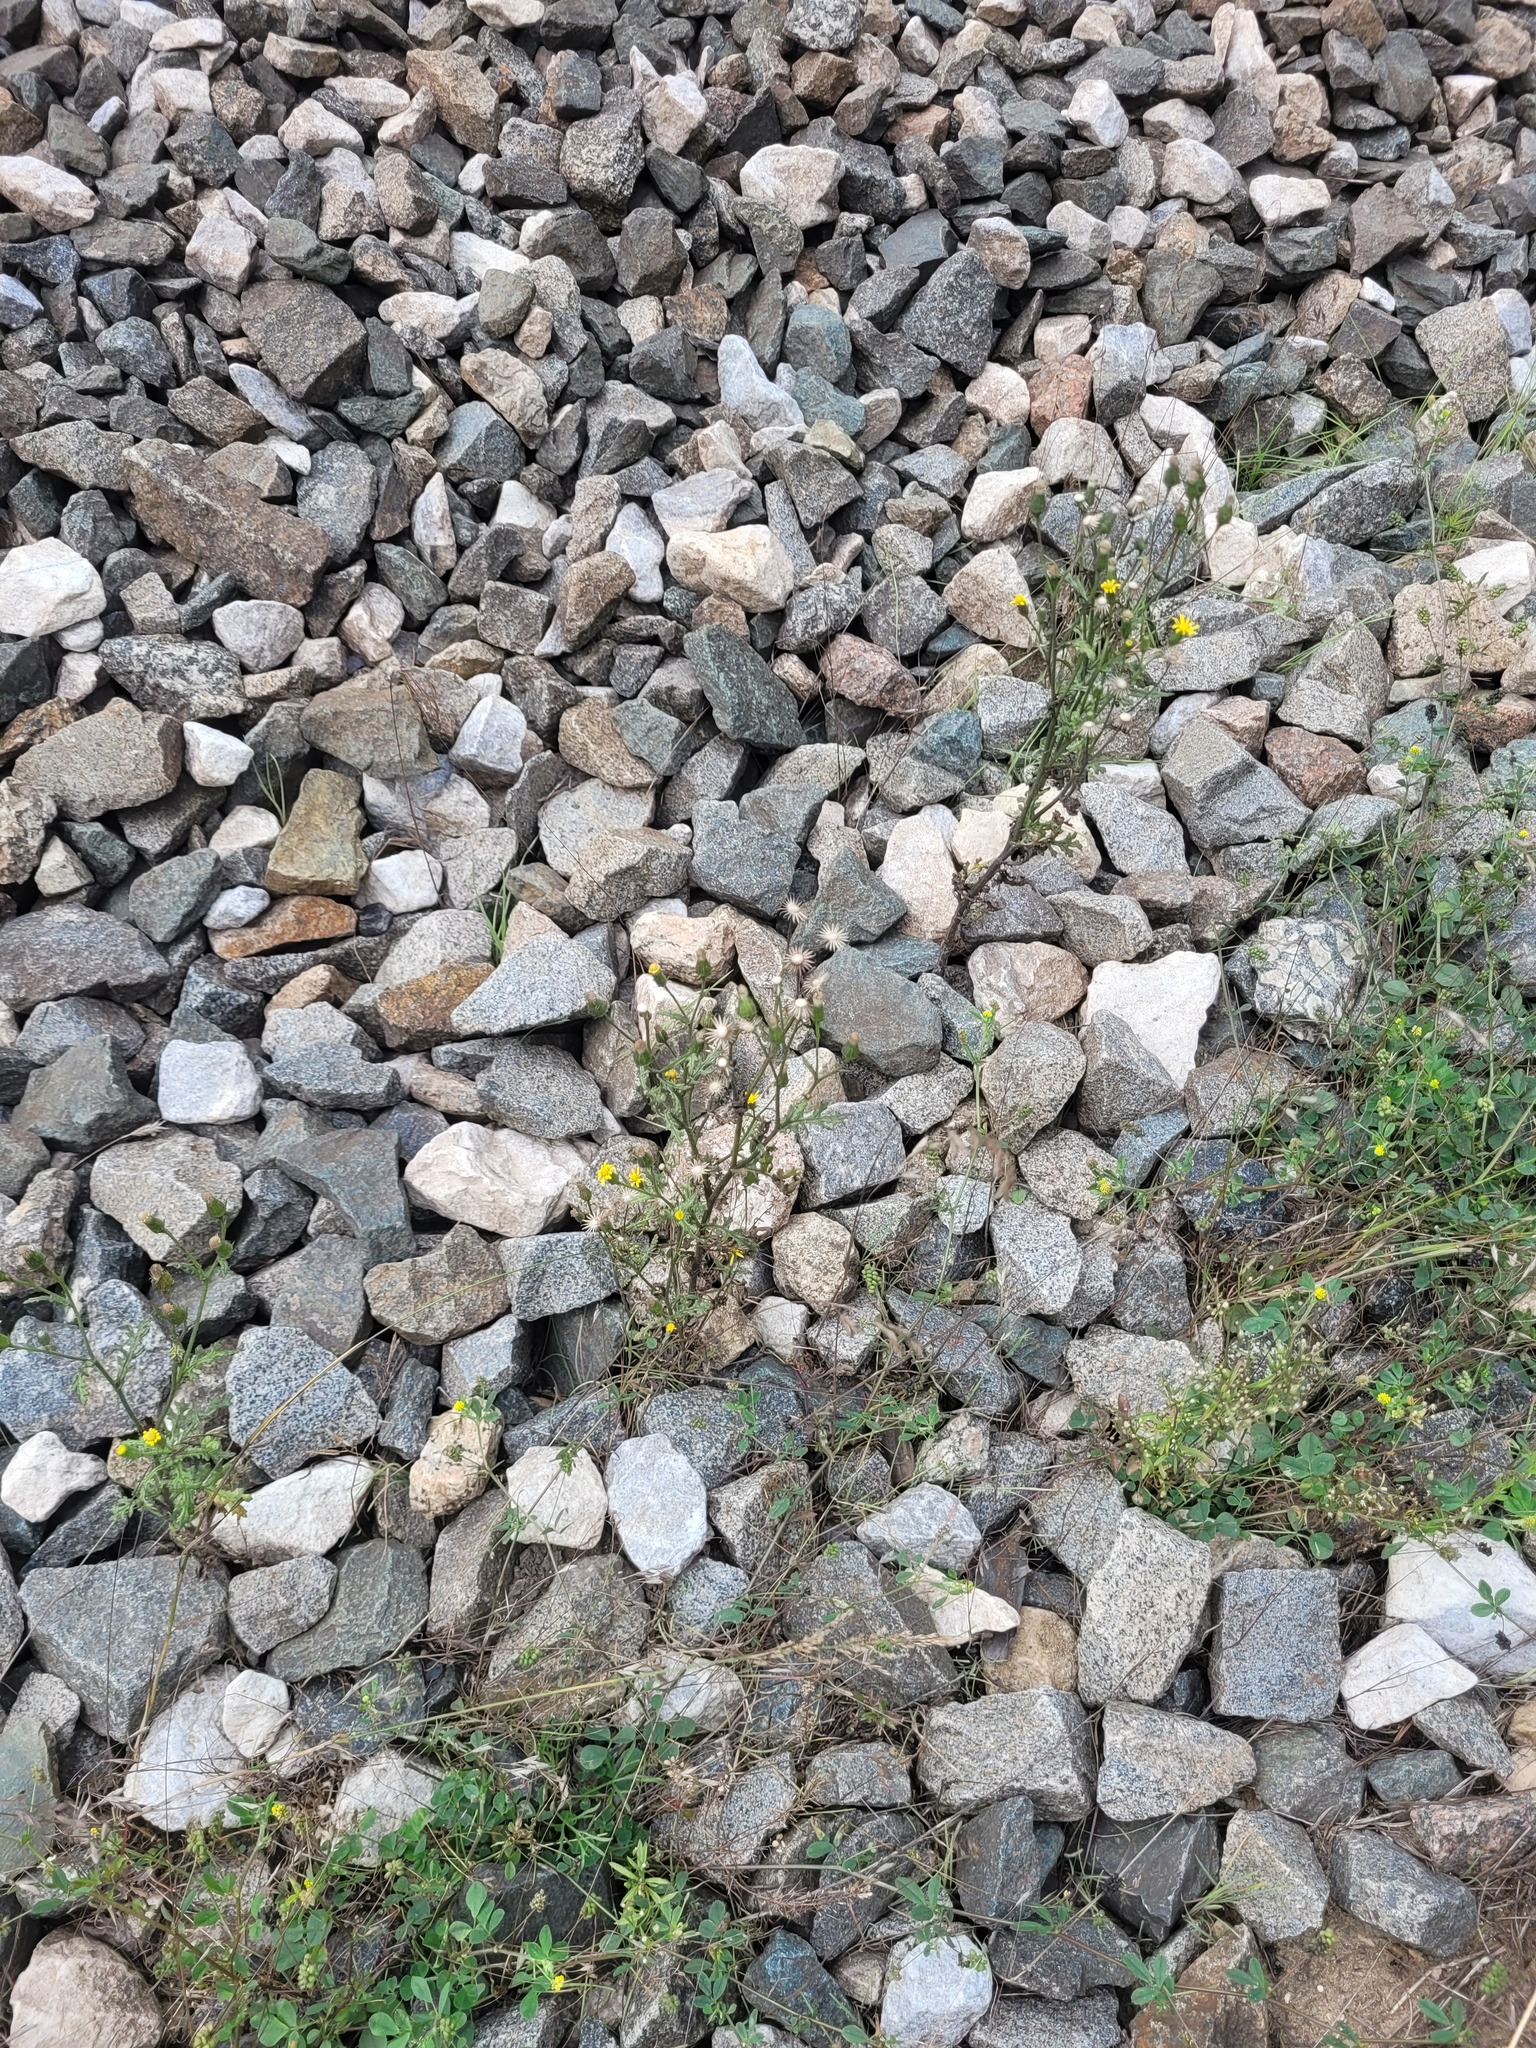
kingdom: Plantae
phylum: Tracheophyta
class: Magnoliopsida
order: Asterales
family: Asteraceae
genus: Senecio
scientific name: Senecio viscosus
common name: Sticky groundsel
